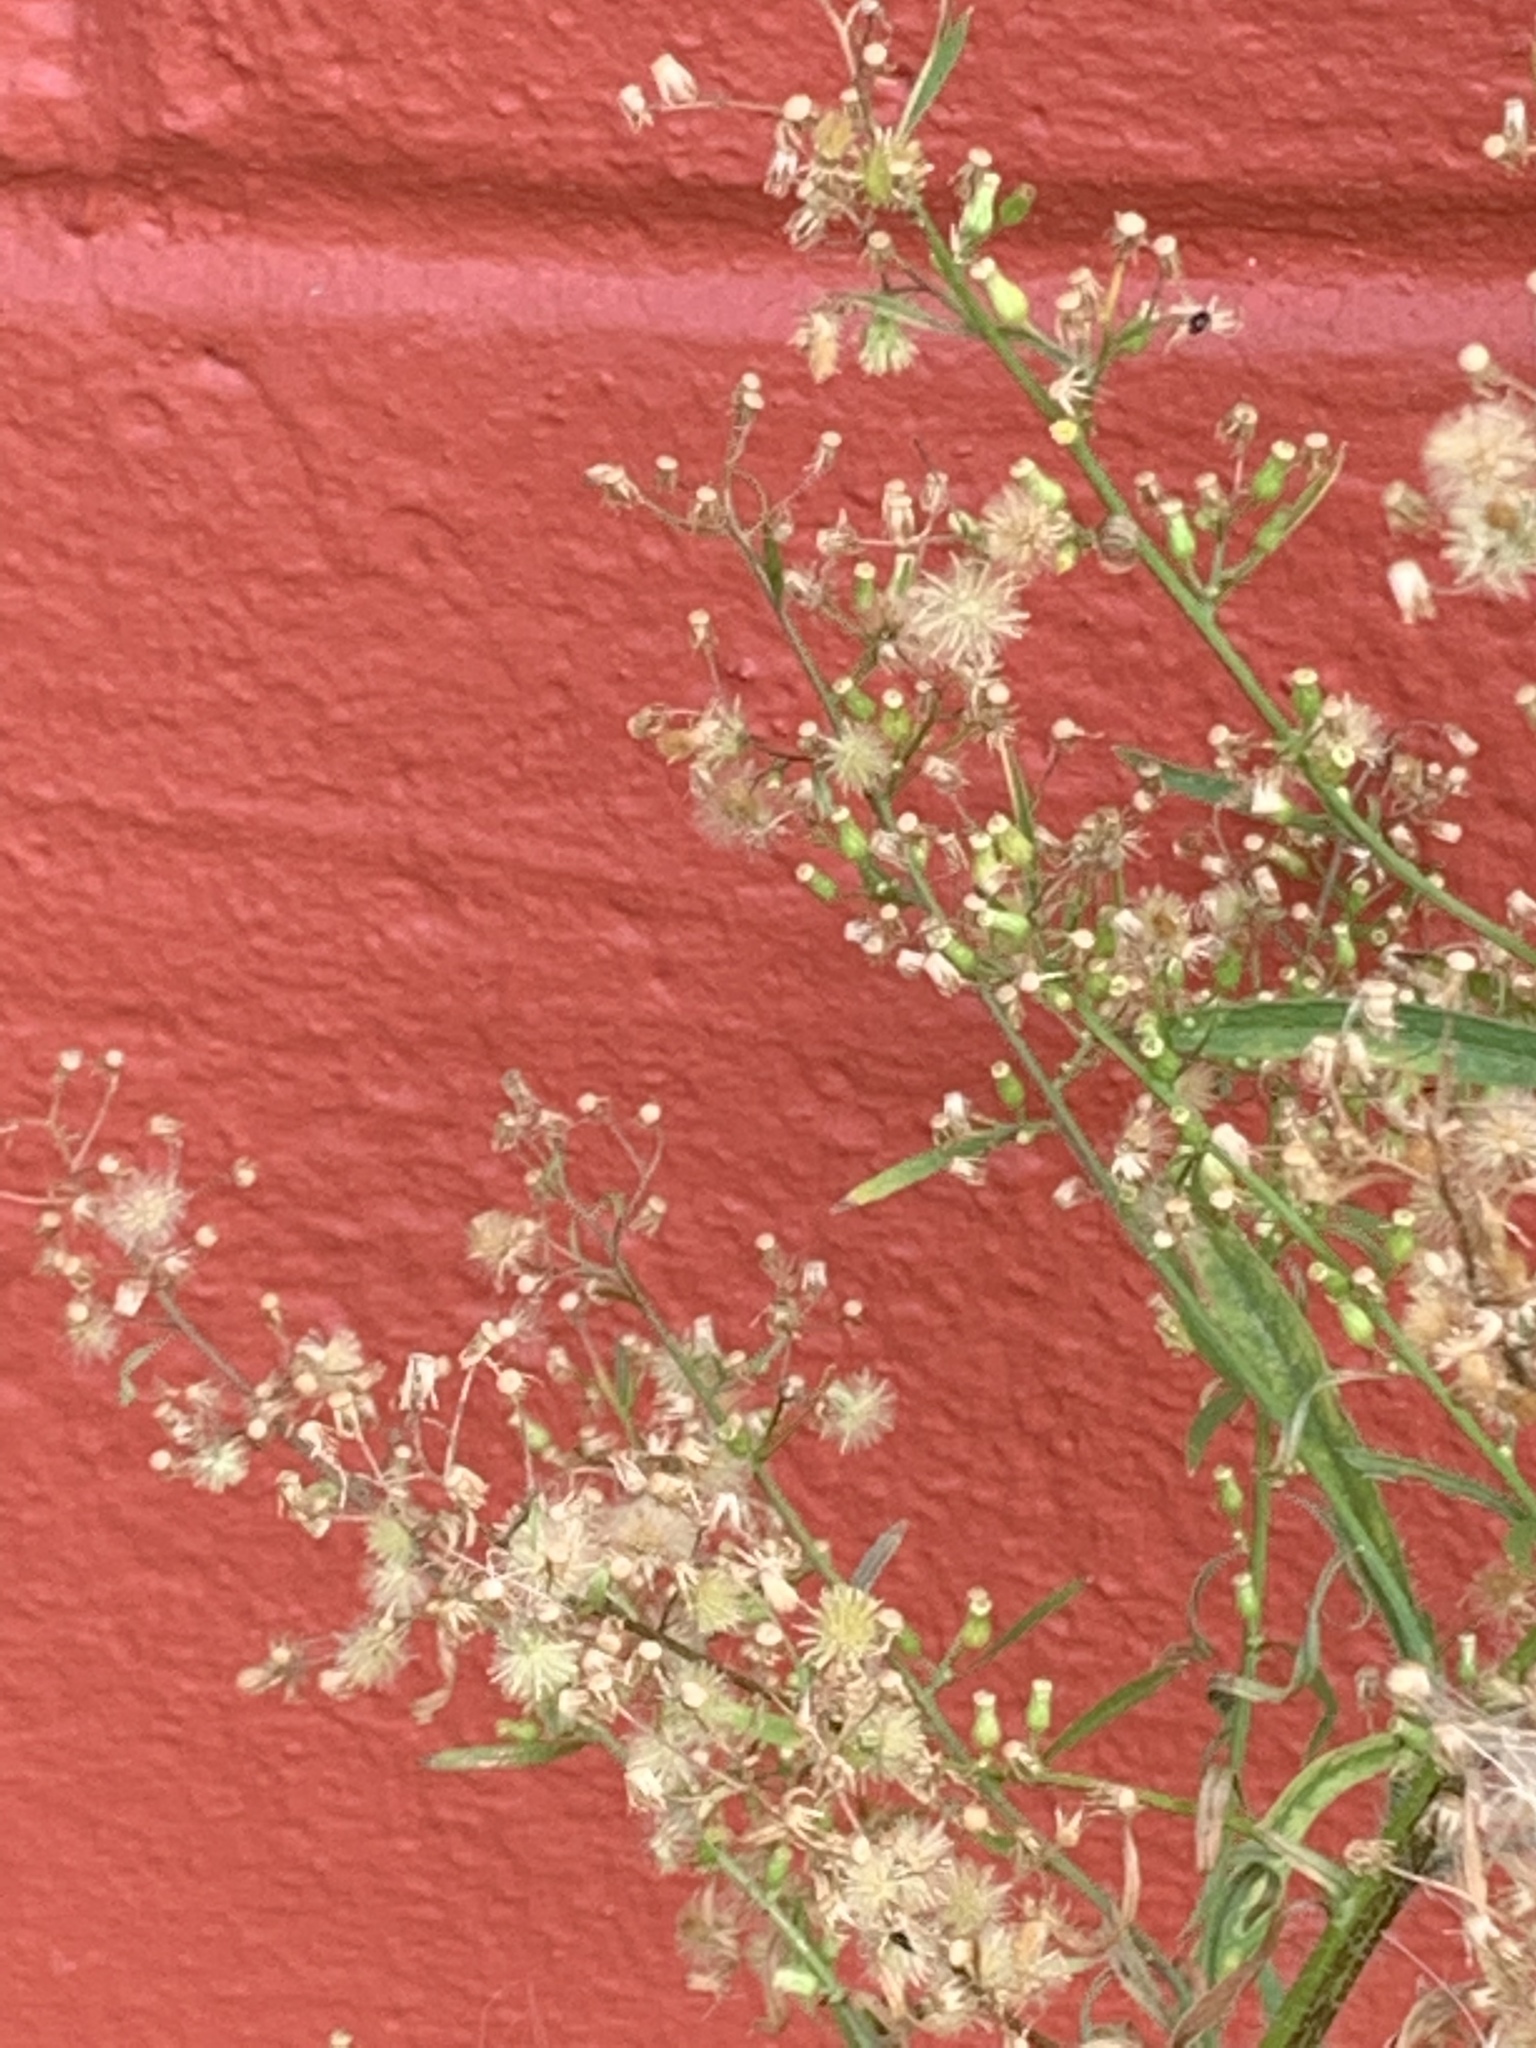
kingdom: Plantae
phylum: Tracheophyta
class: Magnoliopsida
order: Asterales
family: Asteraceae
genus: Erigeron
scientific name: Erigeron canadensis
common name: Canadian fleabane
